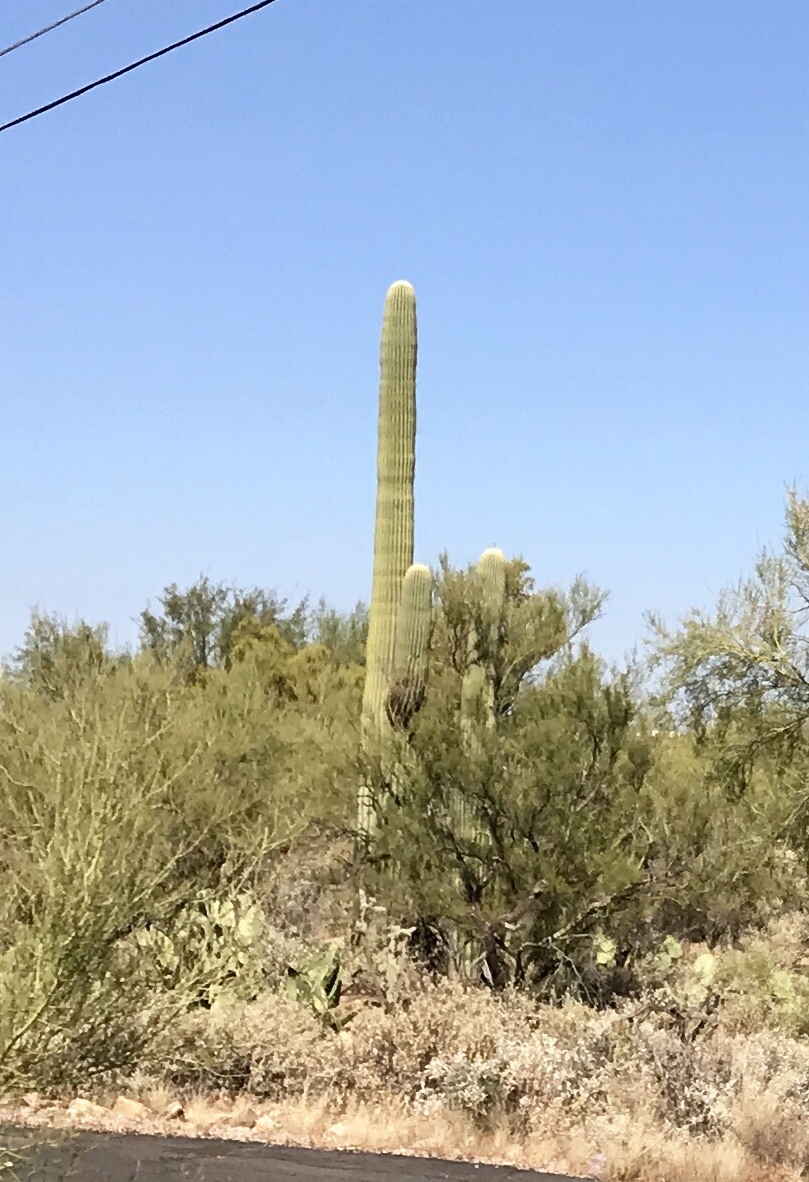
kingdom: Plantae
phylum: Tracheophyta
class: Magnoliopsida
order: Caryophyllales
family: Cactaceae
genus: Carnegiea
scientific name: Carnegiea gigantea
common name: Saguaro
